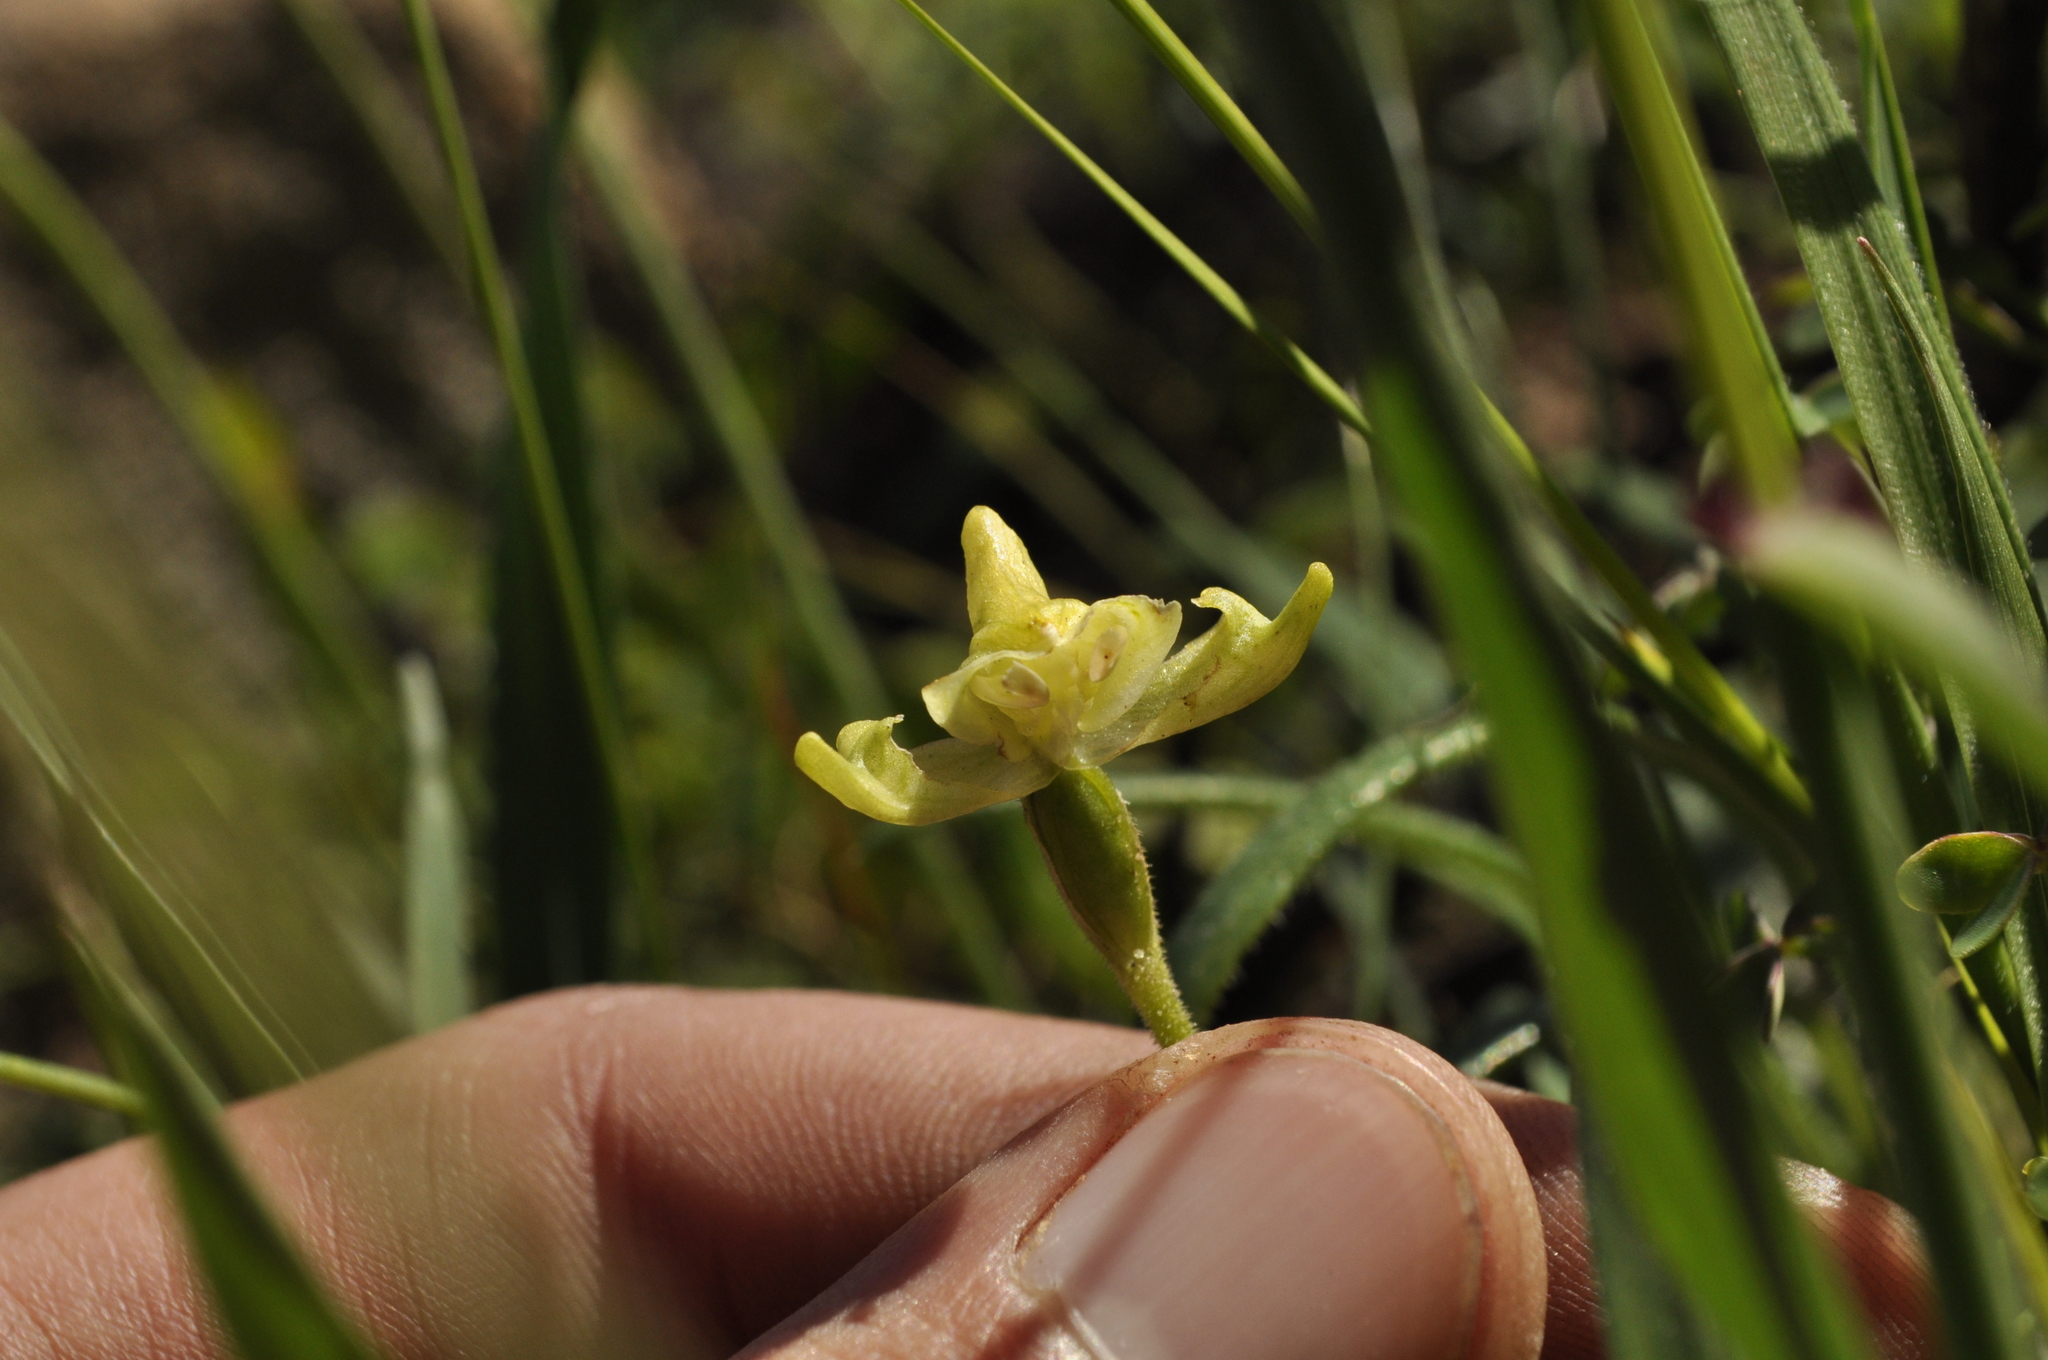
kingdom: Plantae
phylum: Tracheophyta
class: Liliopsida
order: Asparagales
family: Orchidaceae
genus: Disperis
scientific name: Disperis villosa
